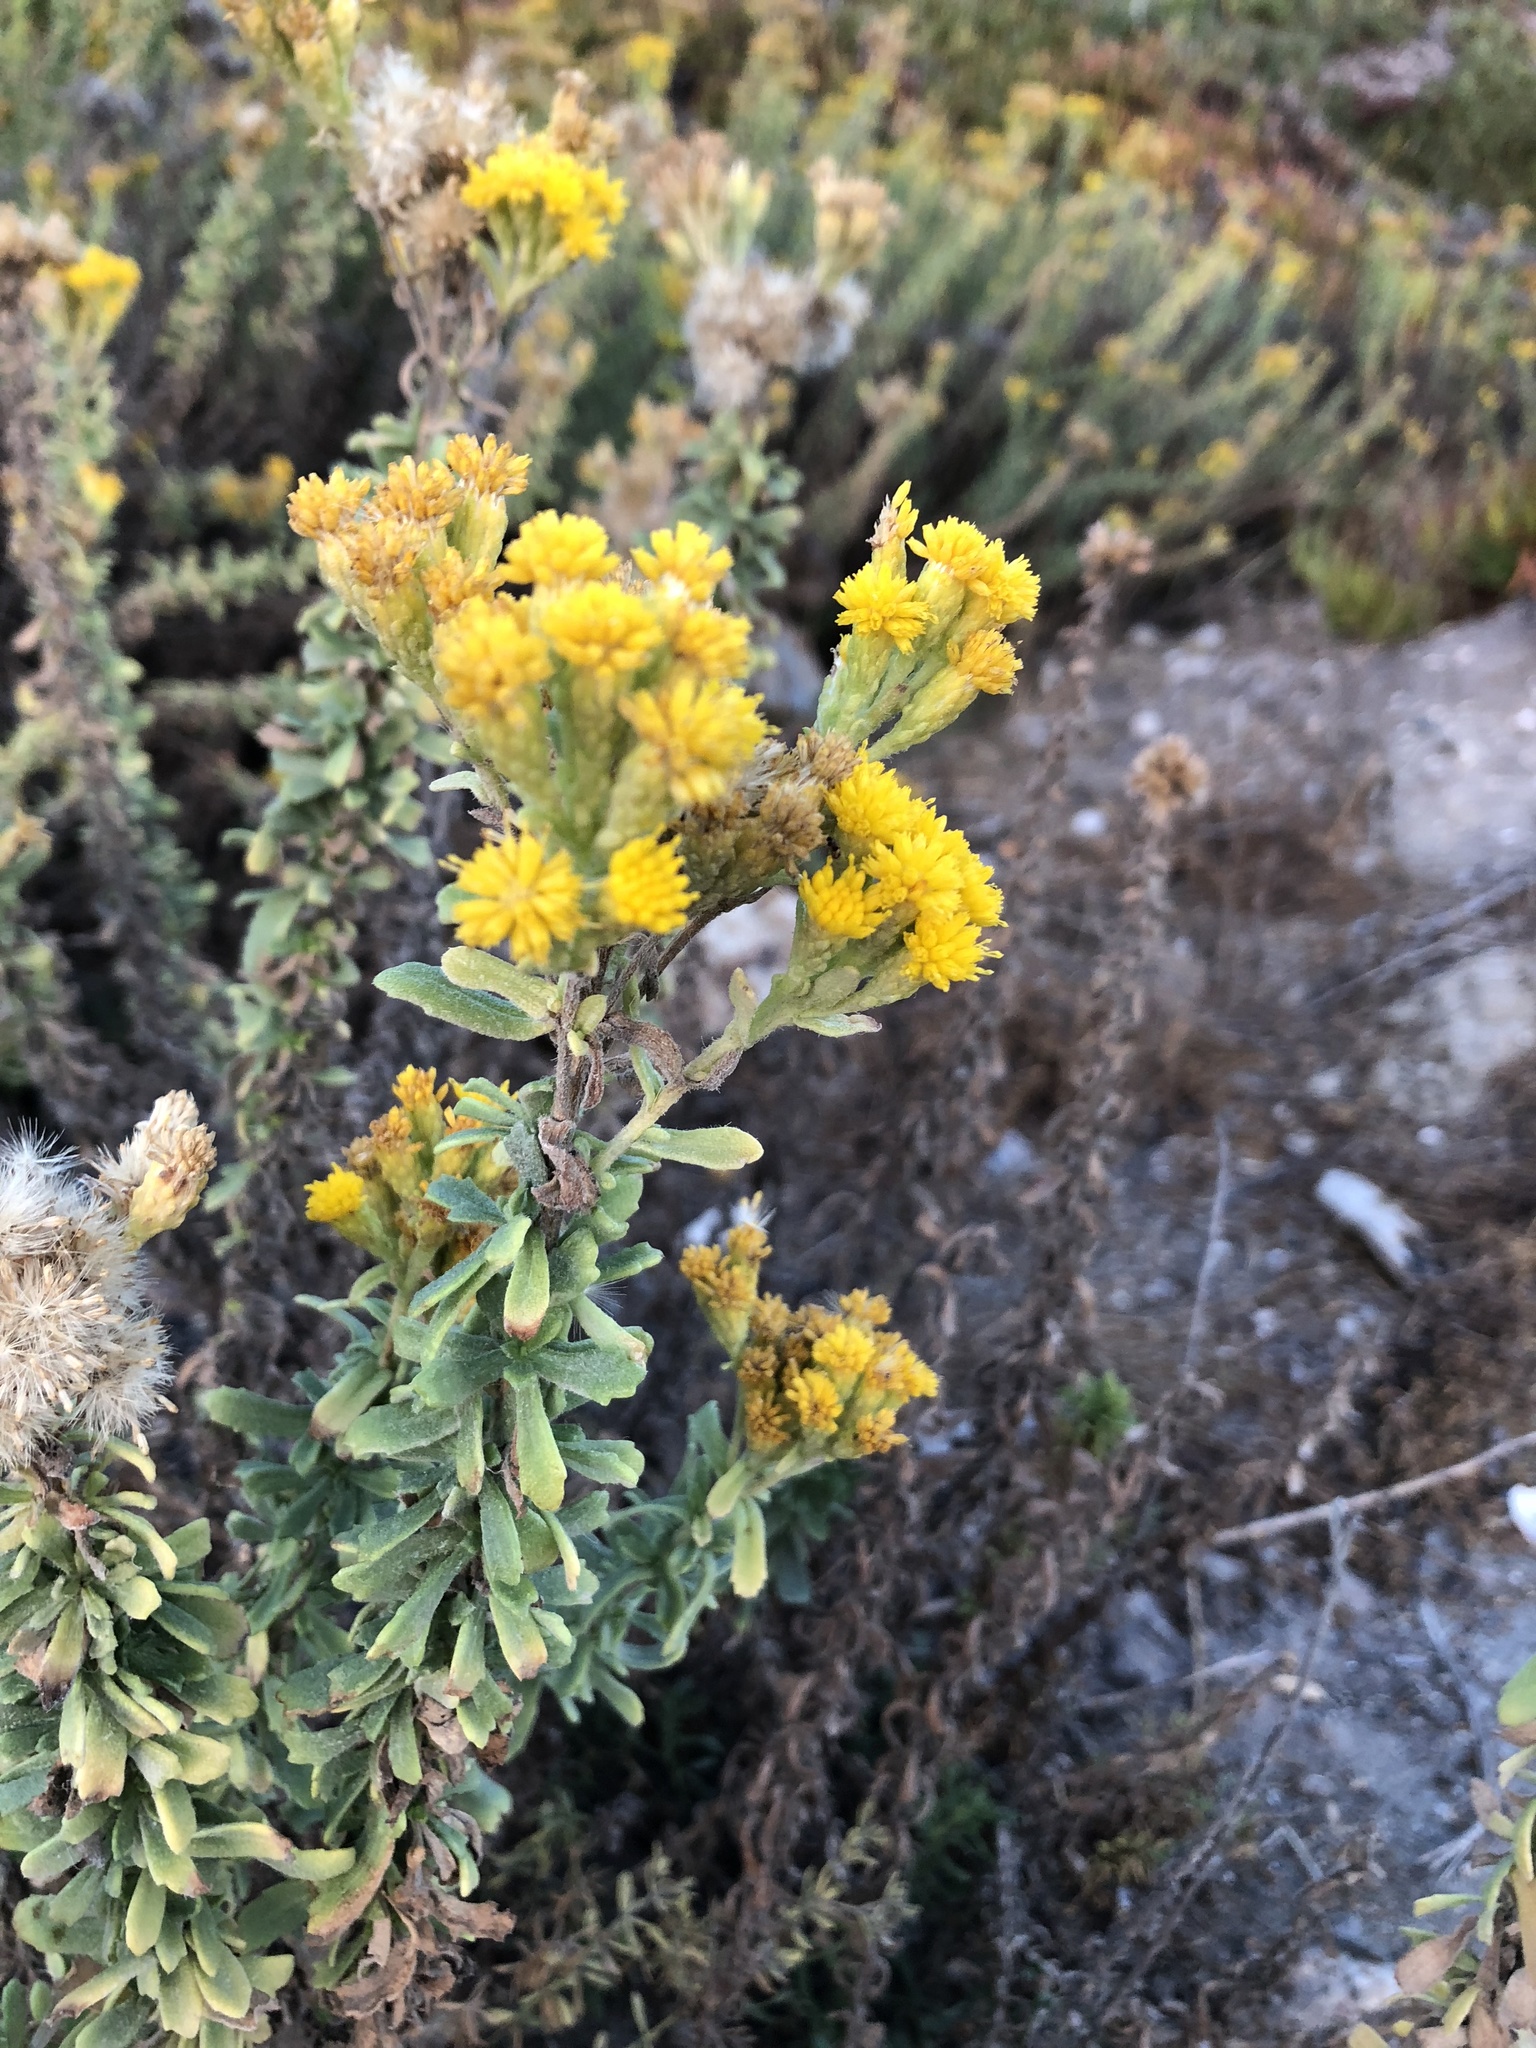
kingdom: Plantae
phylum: Tracheophyta
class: Magnoliopsida
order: Asterales
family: Asteraceae
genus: Isocoma
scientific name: Isocoma menziesii
